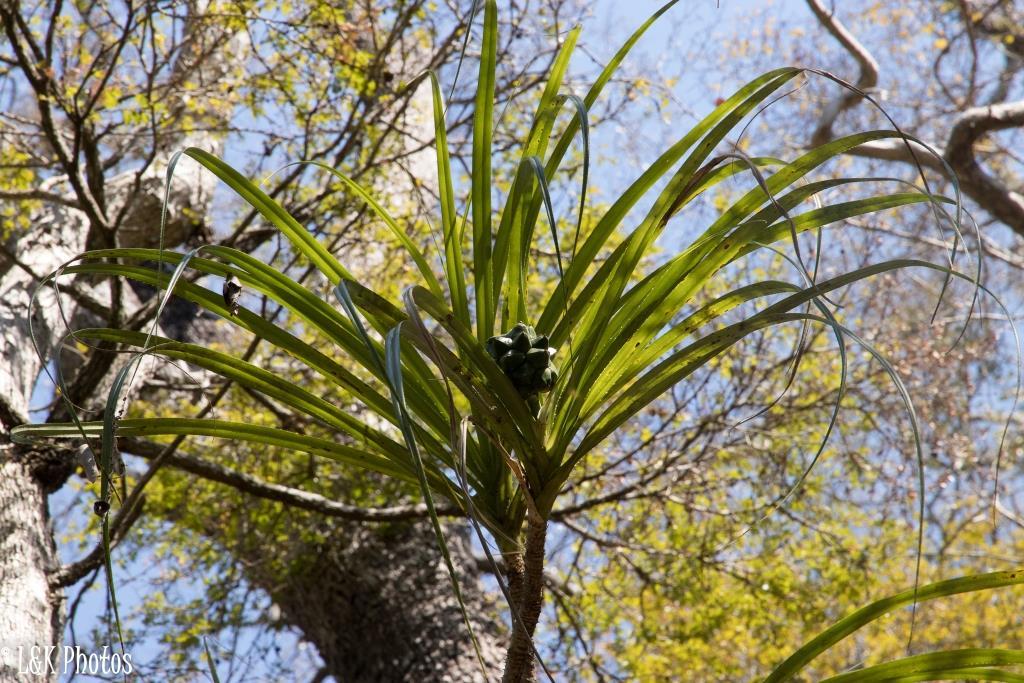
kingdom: Plantae
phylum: Tracheophyta
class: Liliopsida
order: Pandanales
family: Pandanaceae
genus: Pandanus
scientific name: Pandanus aridus
